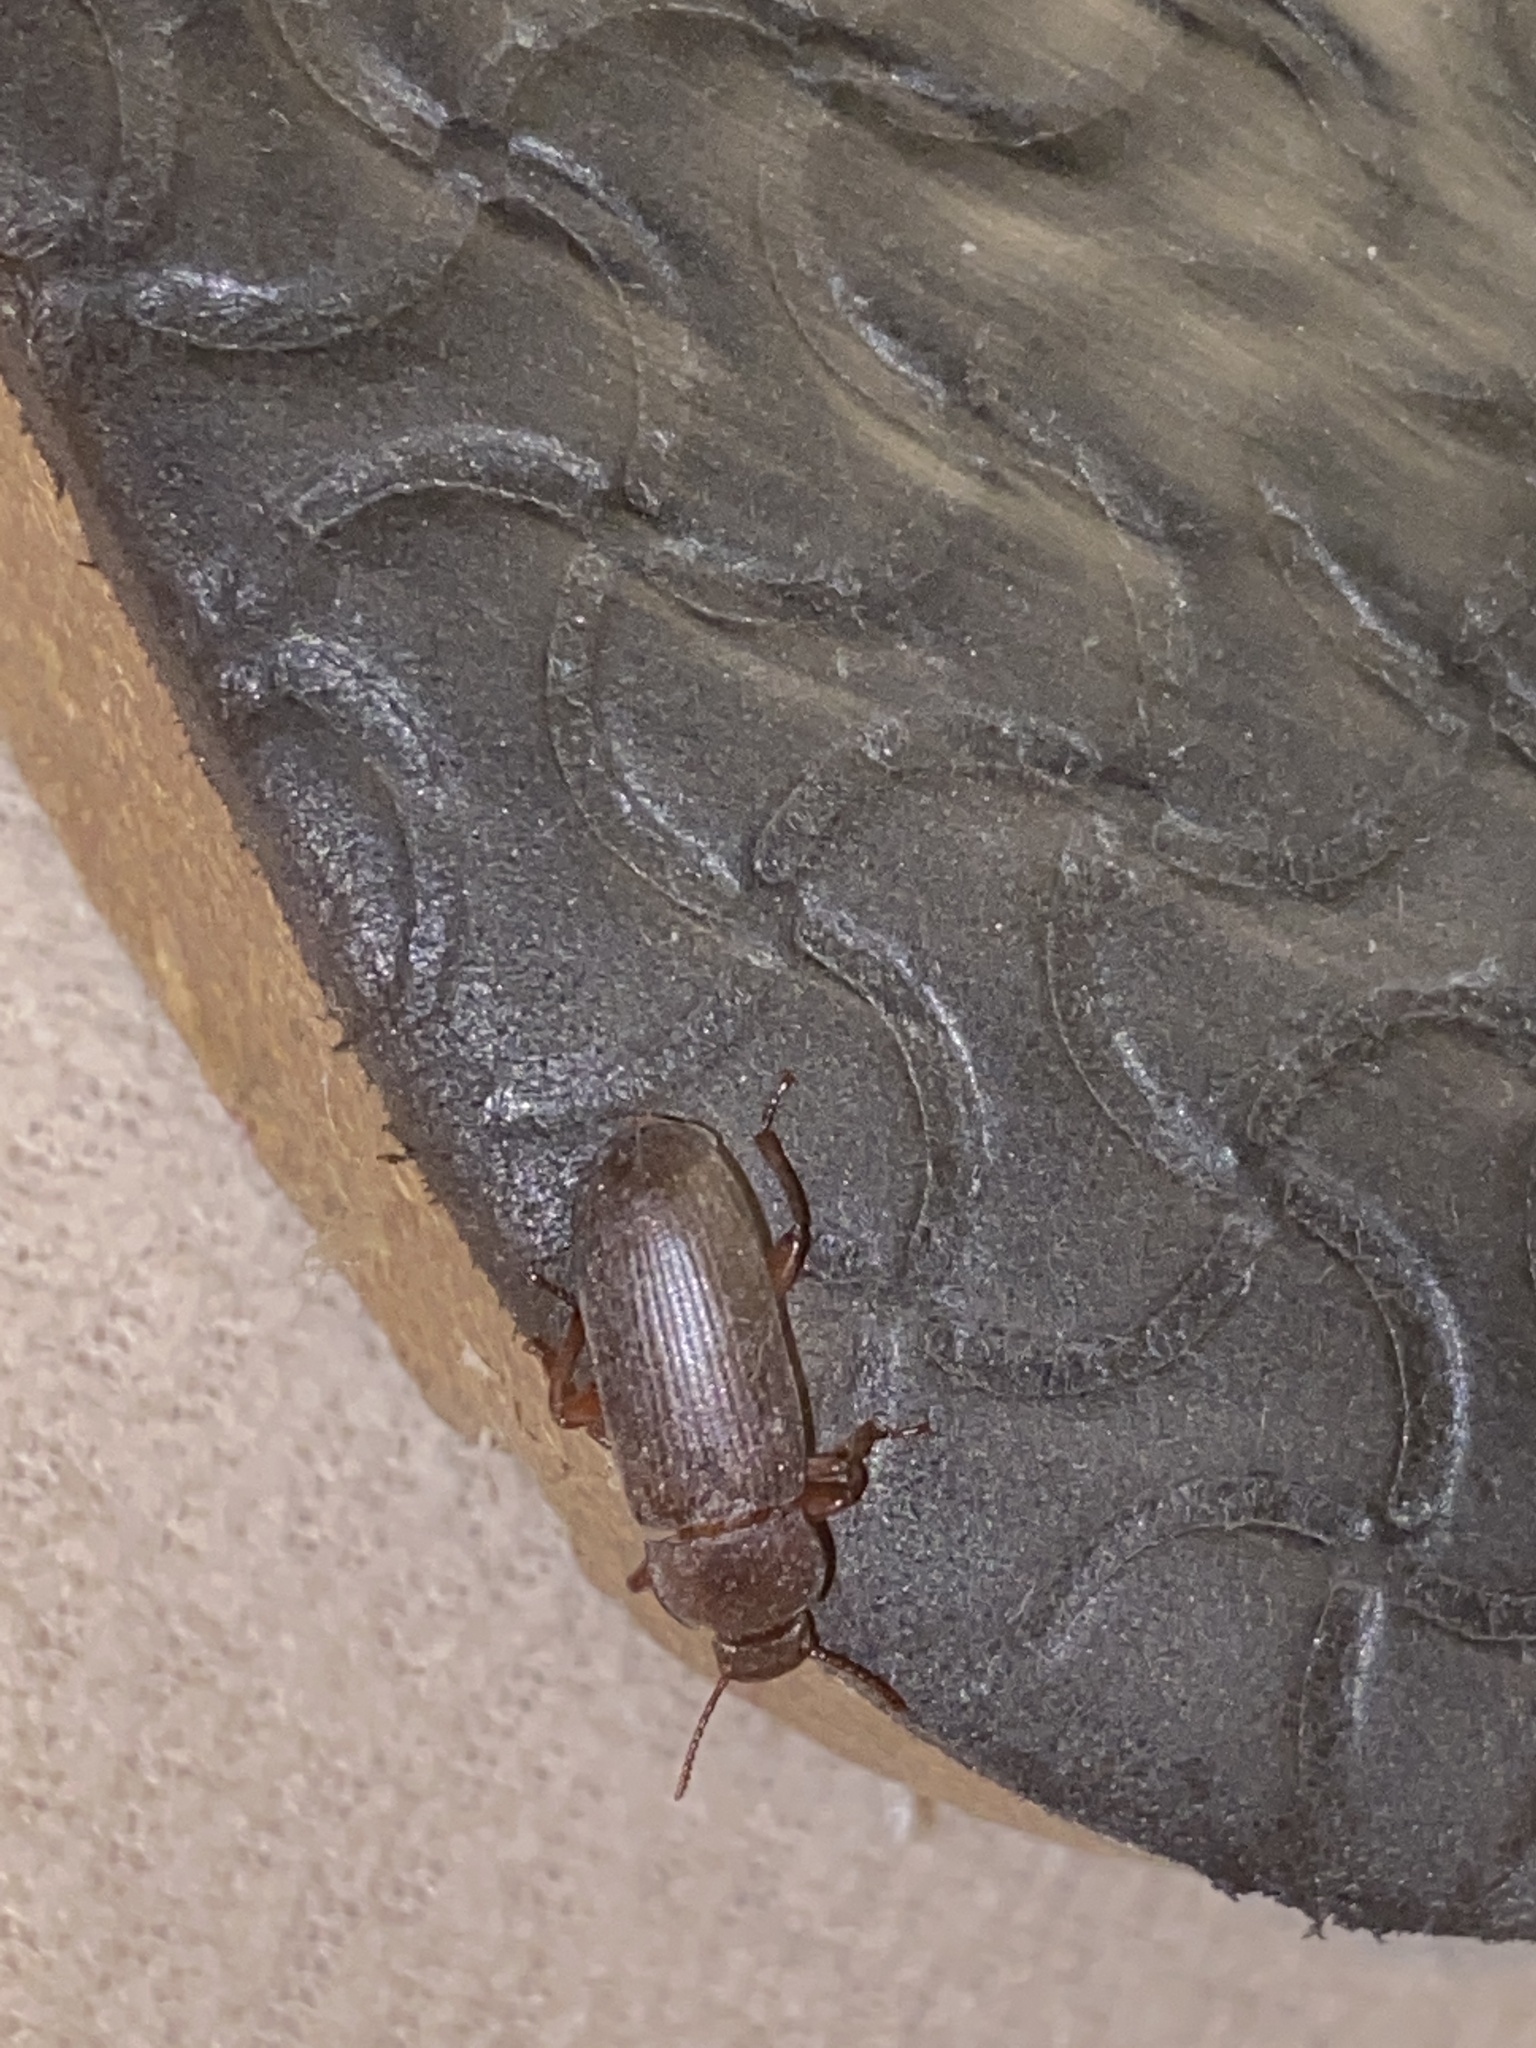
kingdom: Animalia
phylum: Arthropoda
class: Insecta
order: Coleoptera
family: Tenebrionidae
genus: Tenebrio
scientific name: Tenebrio molitor
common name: Hardback beetle
